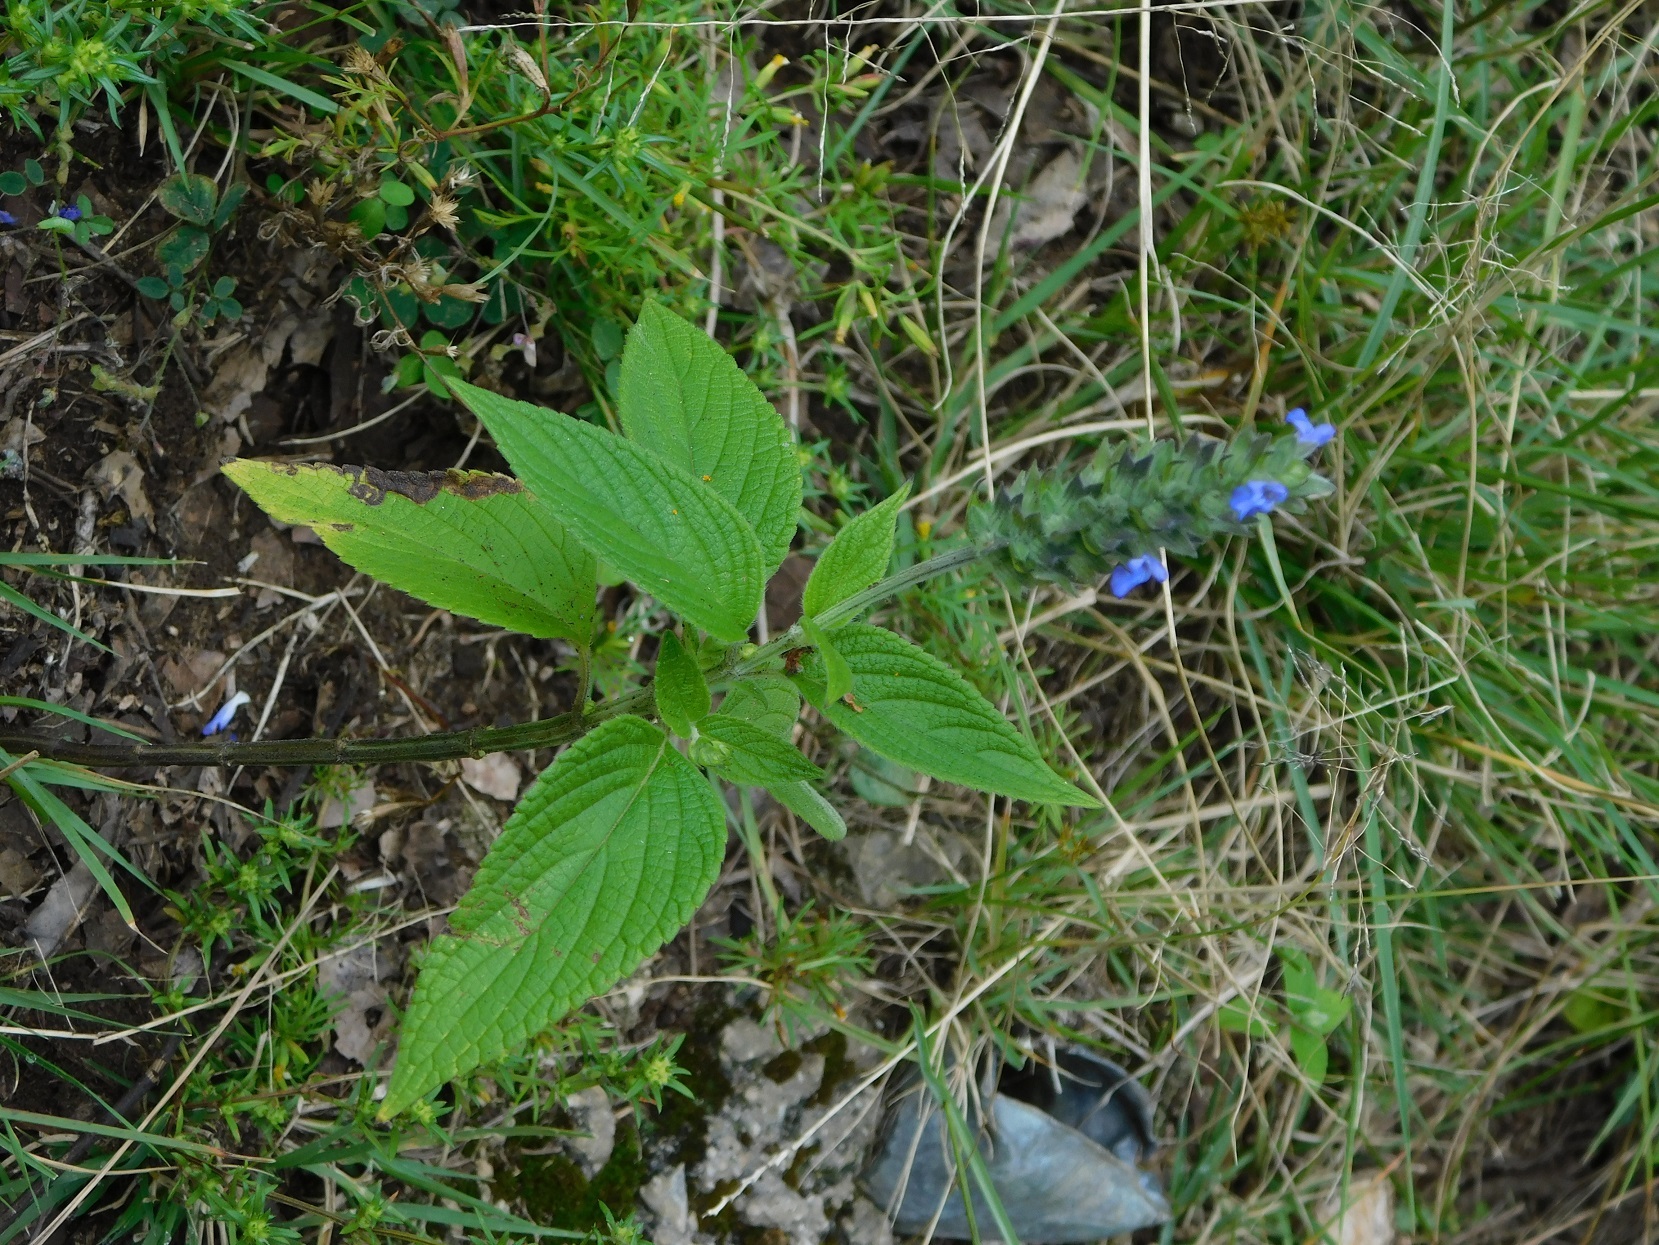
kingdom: Plantae
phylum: Tracheophyta
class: Magnoliopsida
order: Lamiales
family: Lamiaceae
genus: Salvia
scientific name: Salvia hispanica
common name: Chia
